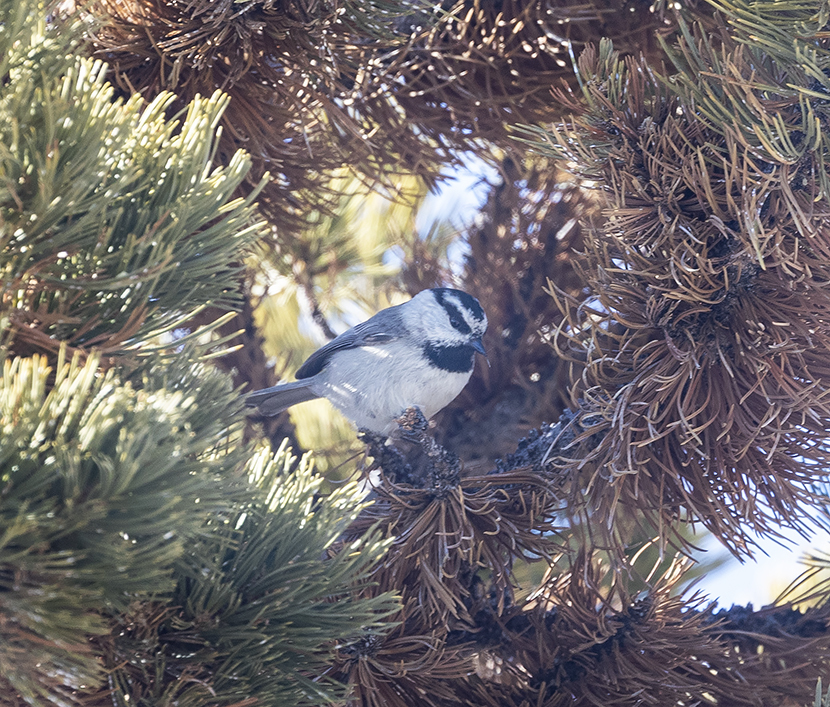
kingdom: Animalia
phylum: Chordata
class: Aves
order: Passeriformes
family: Paridae
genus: Poecile
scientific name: Poecile gambeli
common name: Mountain chickadee
